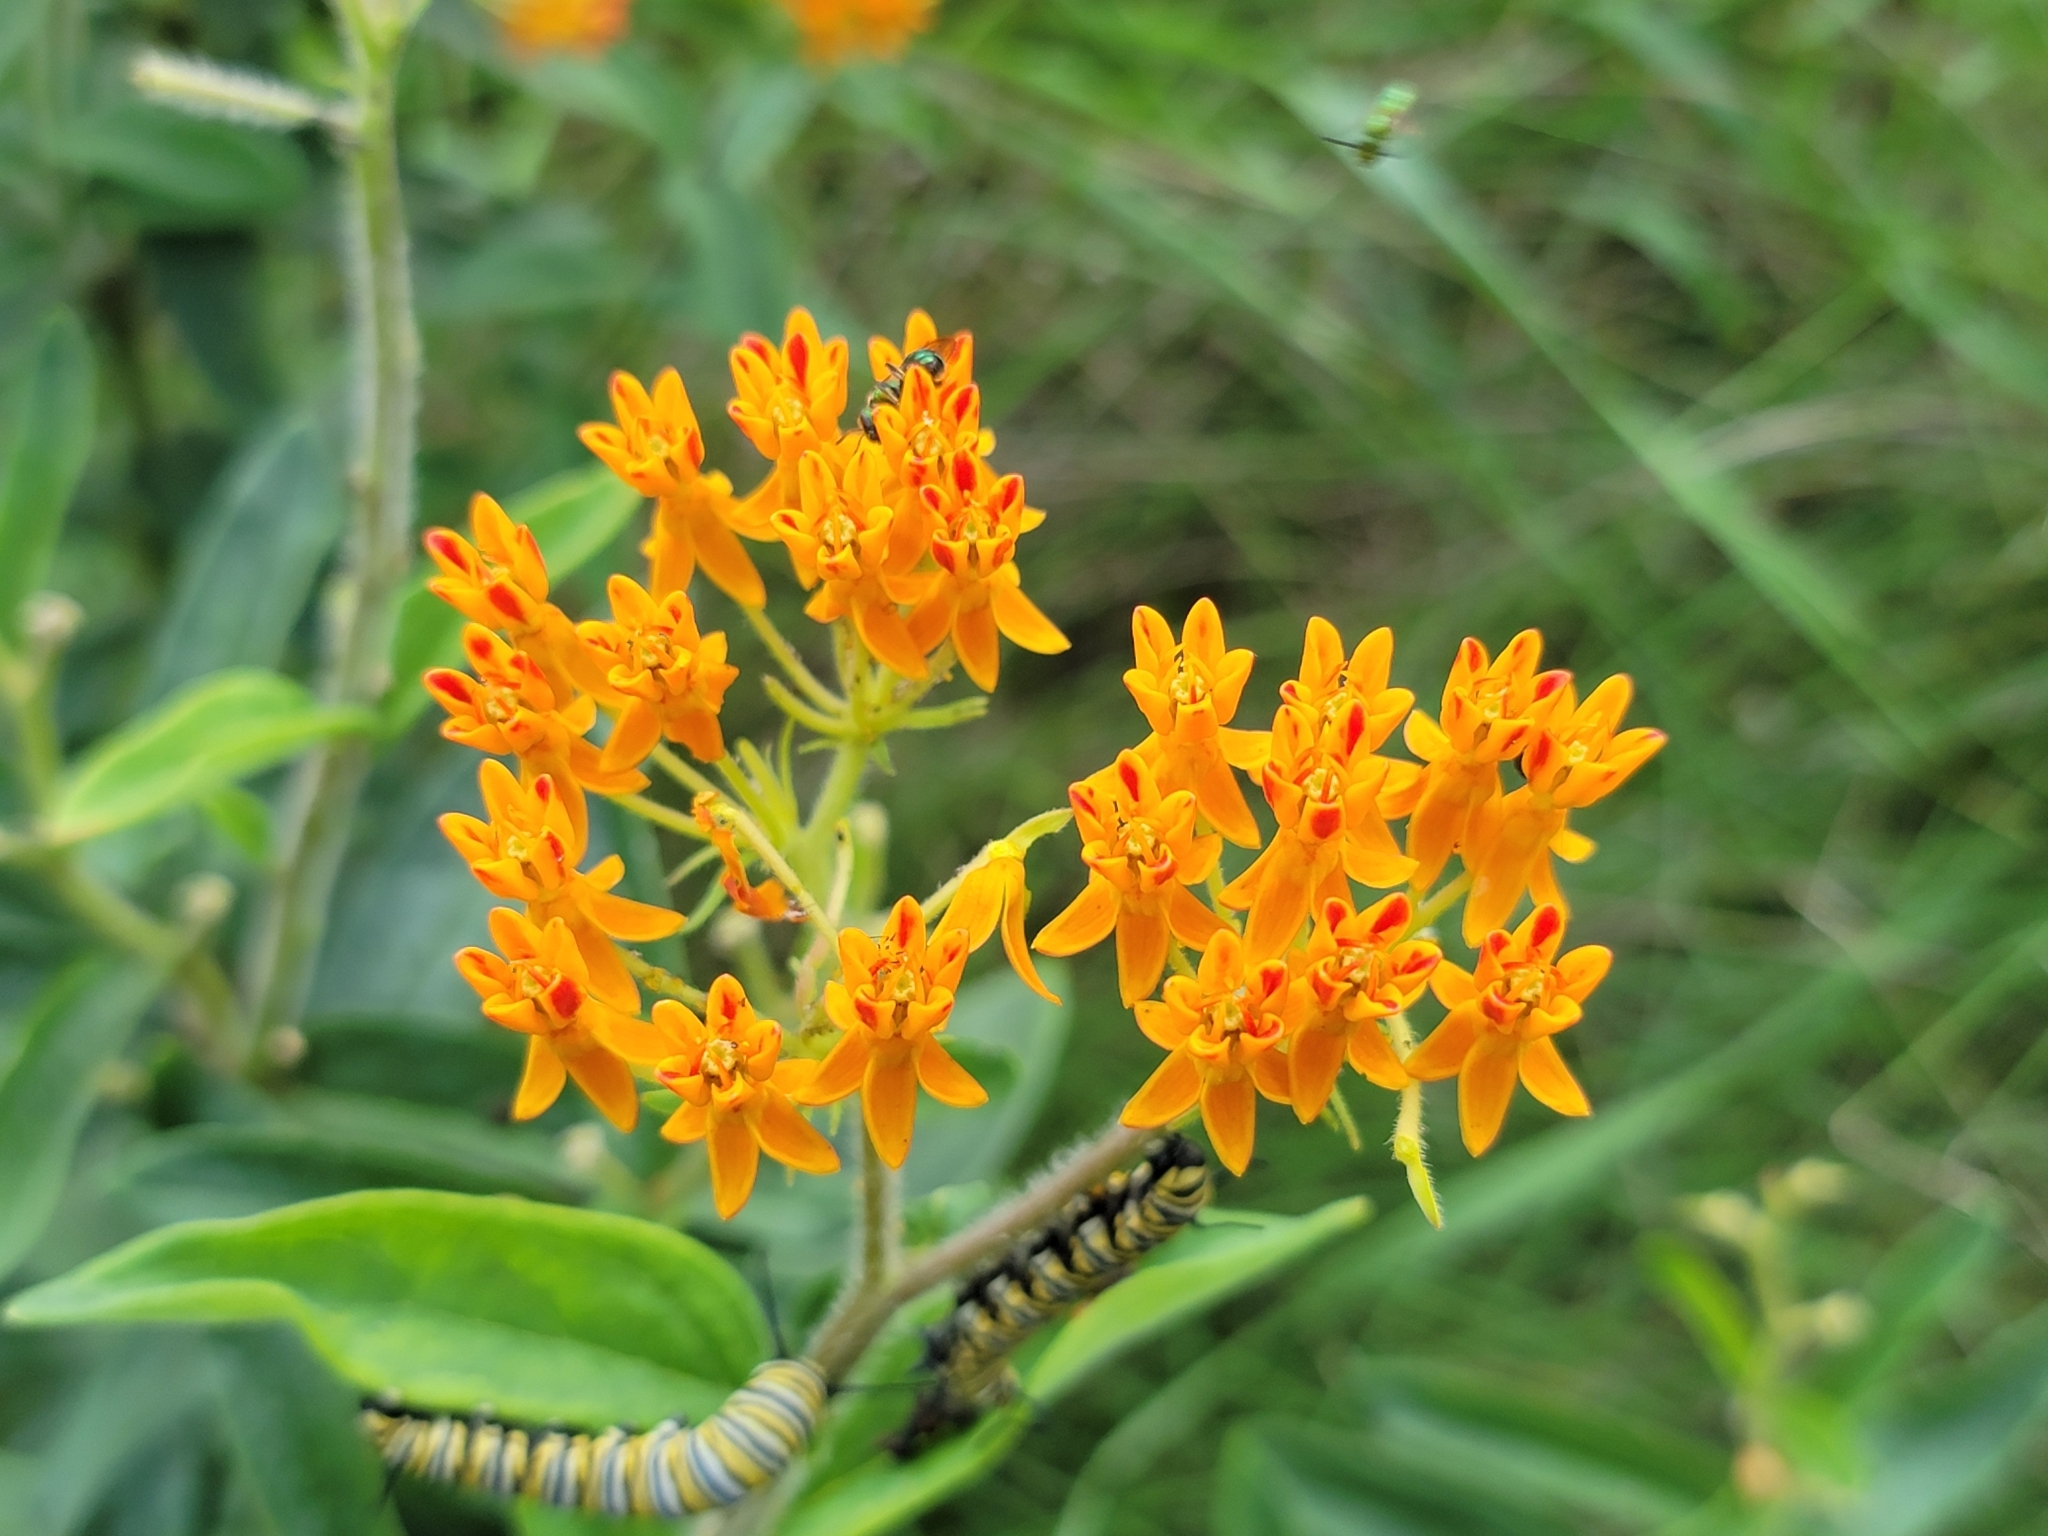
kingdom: Plantae
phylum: Tracheophyta
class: Magnoliopsida
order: Gentianales
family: Apocynaceae
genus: Asclepias
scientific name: Asclepias tuberosa
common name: Butterfly milkweed
